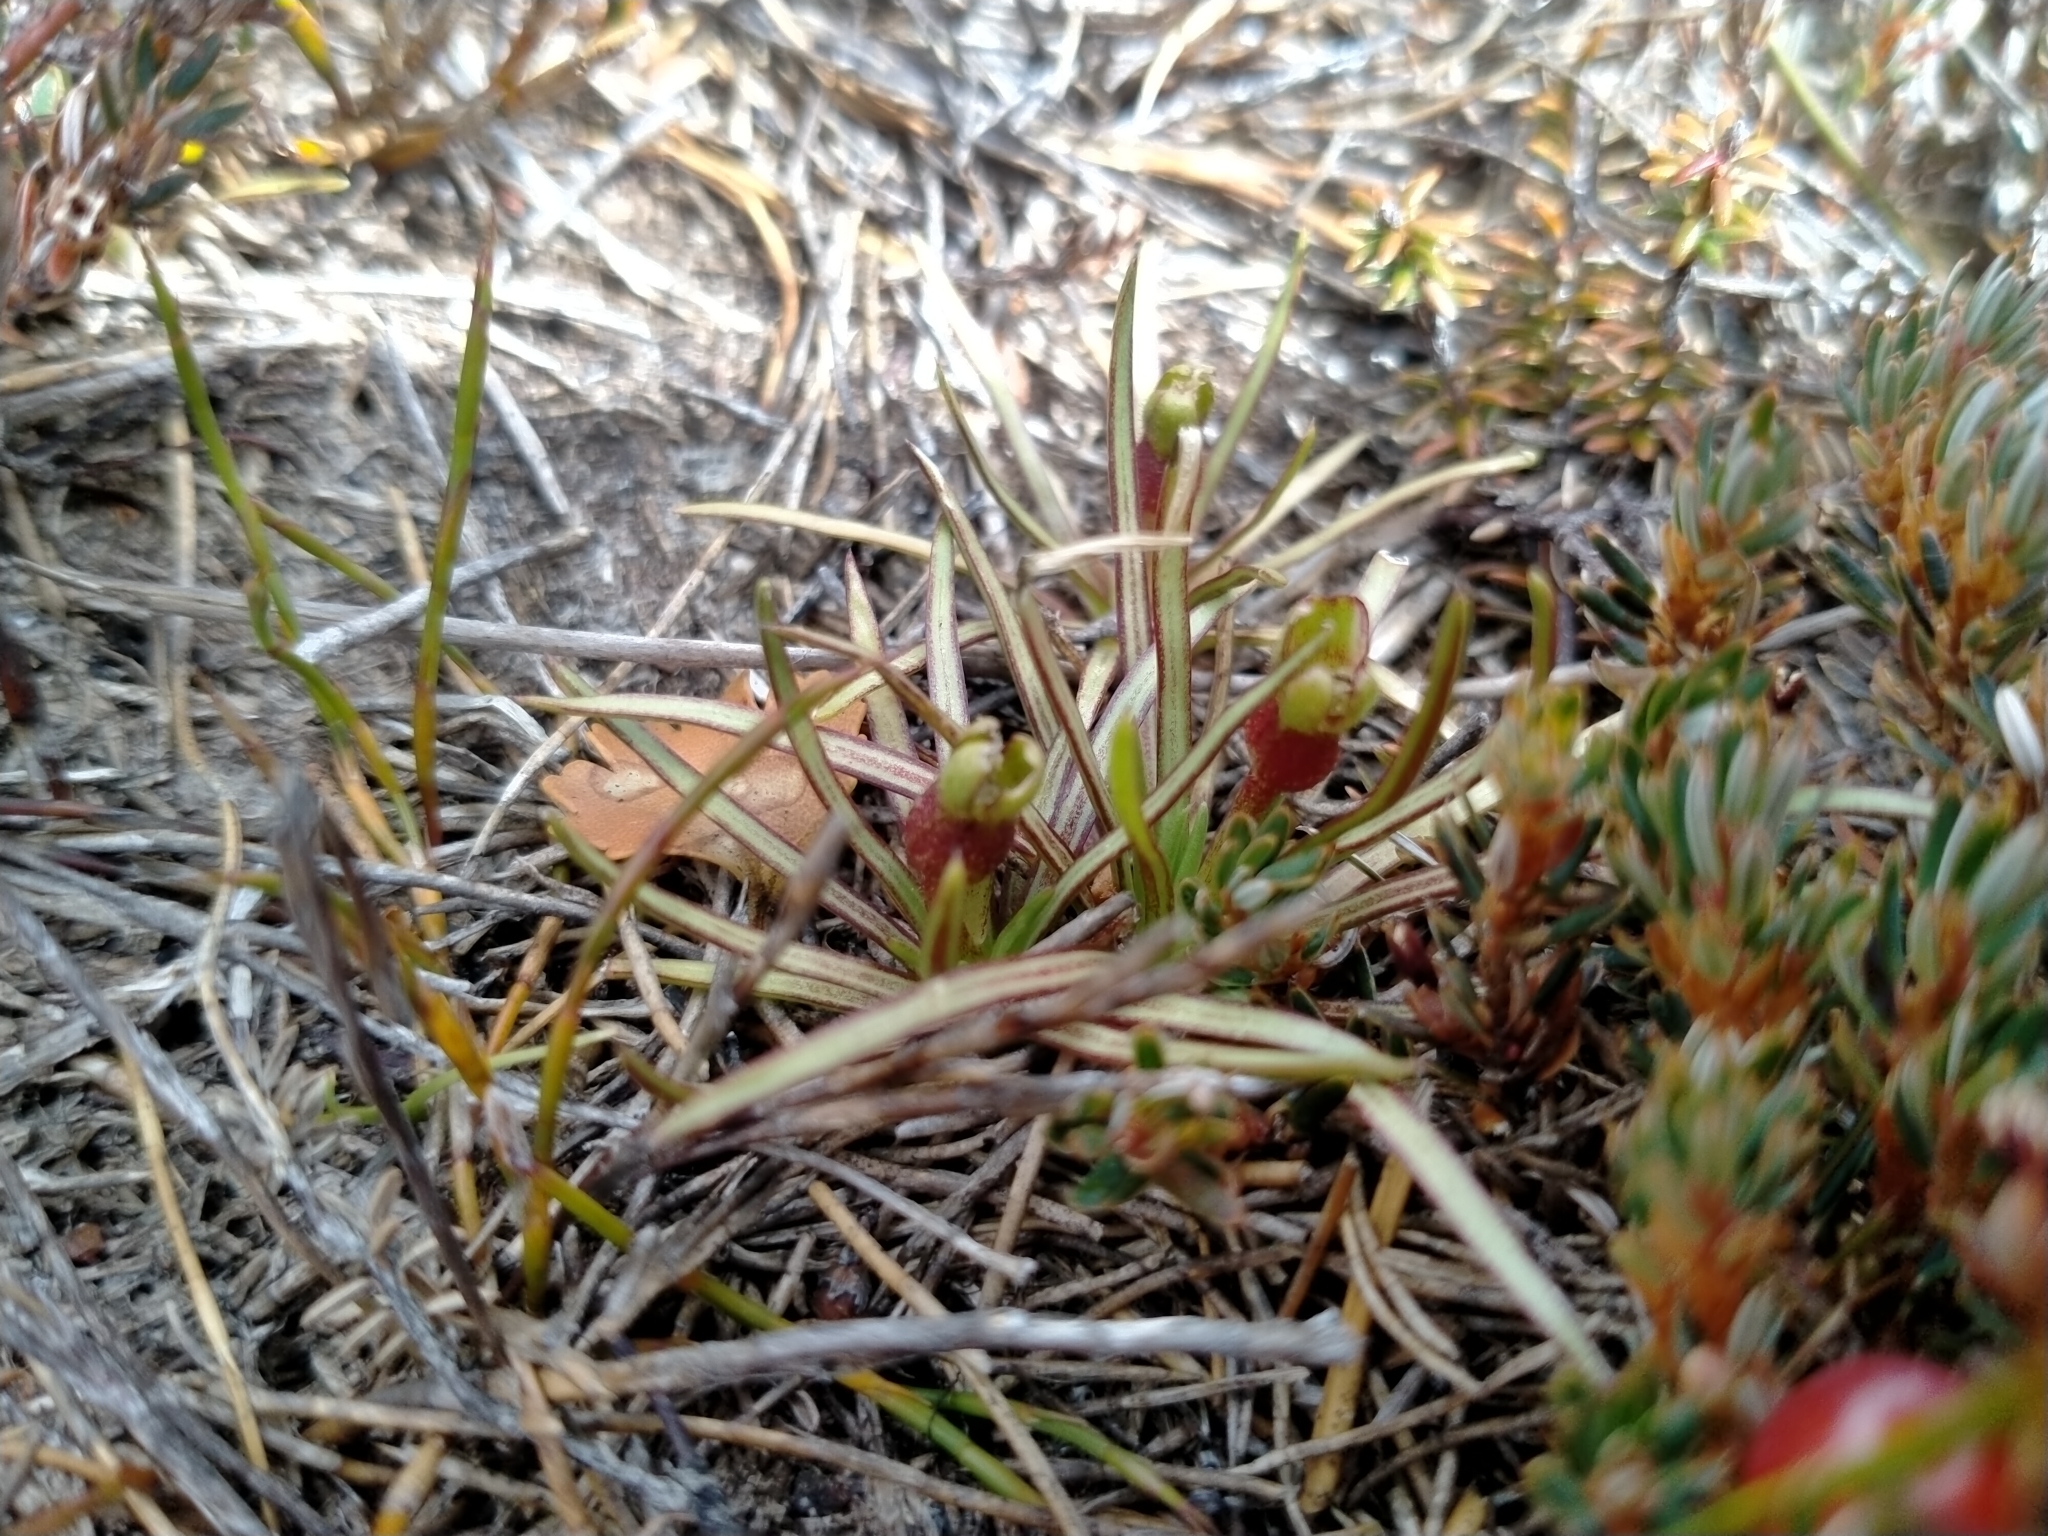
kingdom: Plantae
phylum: Tracheophyta
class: Magnoliopsida
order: Asterales
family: Stylidiaceae
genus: Oreostylidium
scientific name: Oreostylidium subulatum
